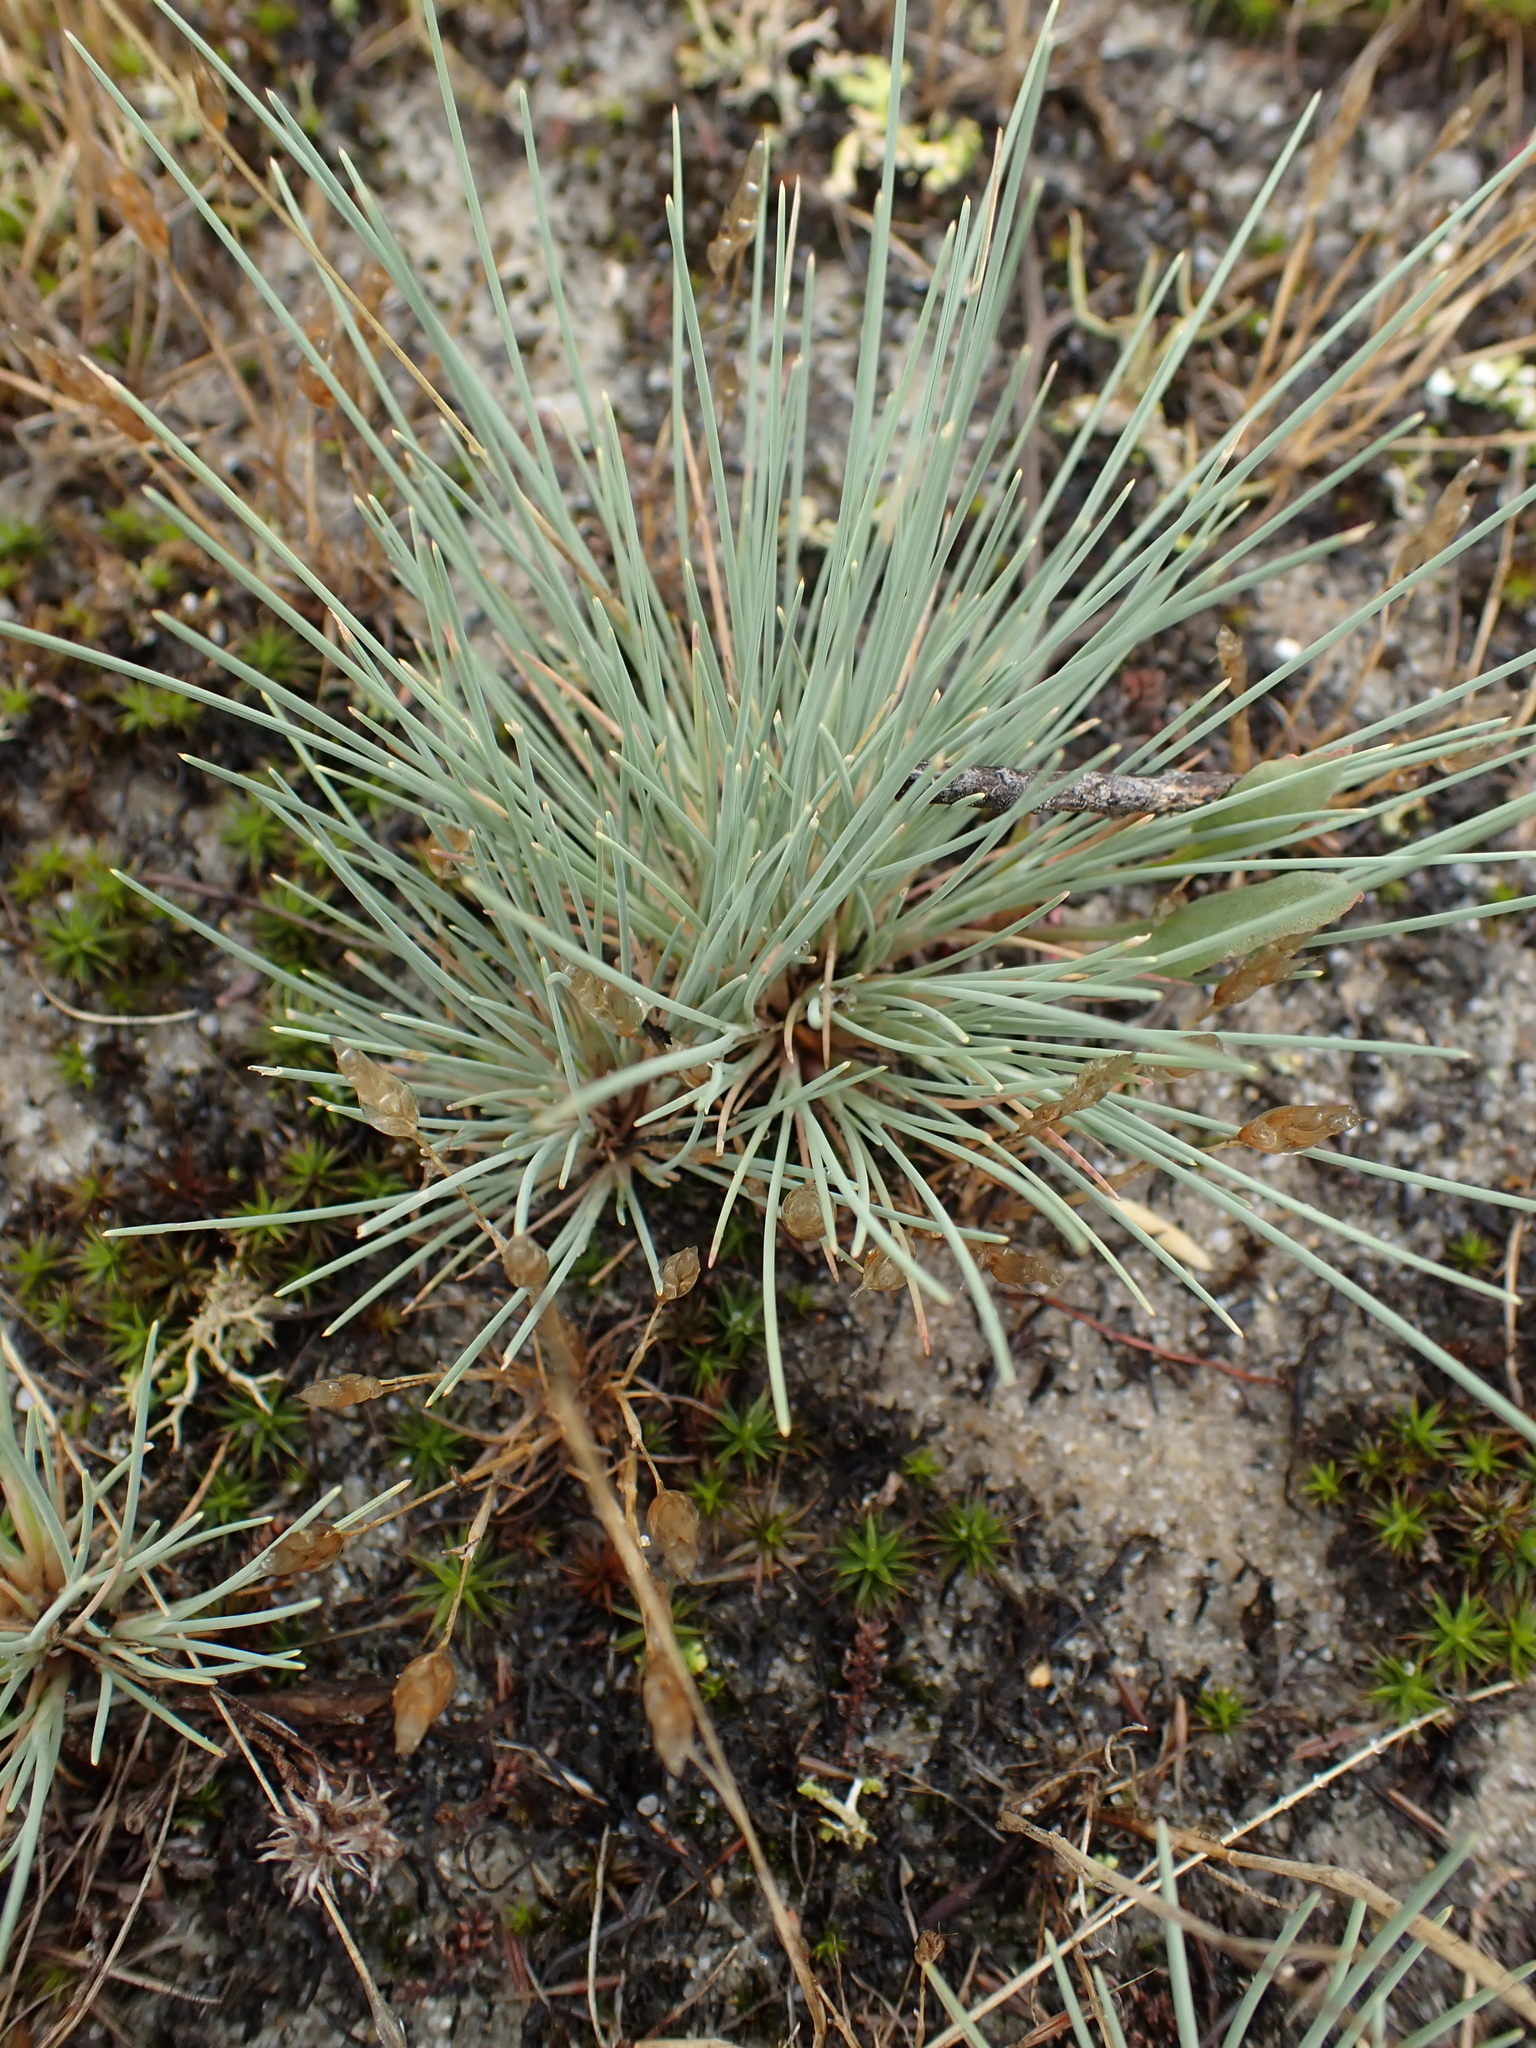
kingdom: Plantae
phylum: Tracheophyta
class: Liliopsida
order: Poales
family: Poaceae
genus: Corynephorus
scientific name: Corynephorus canescens
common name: Grey hair-grass
